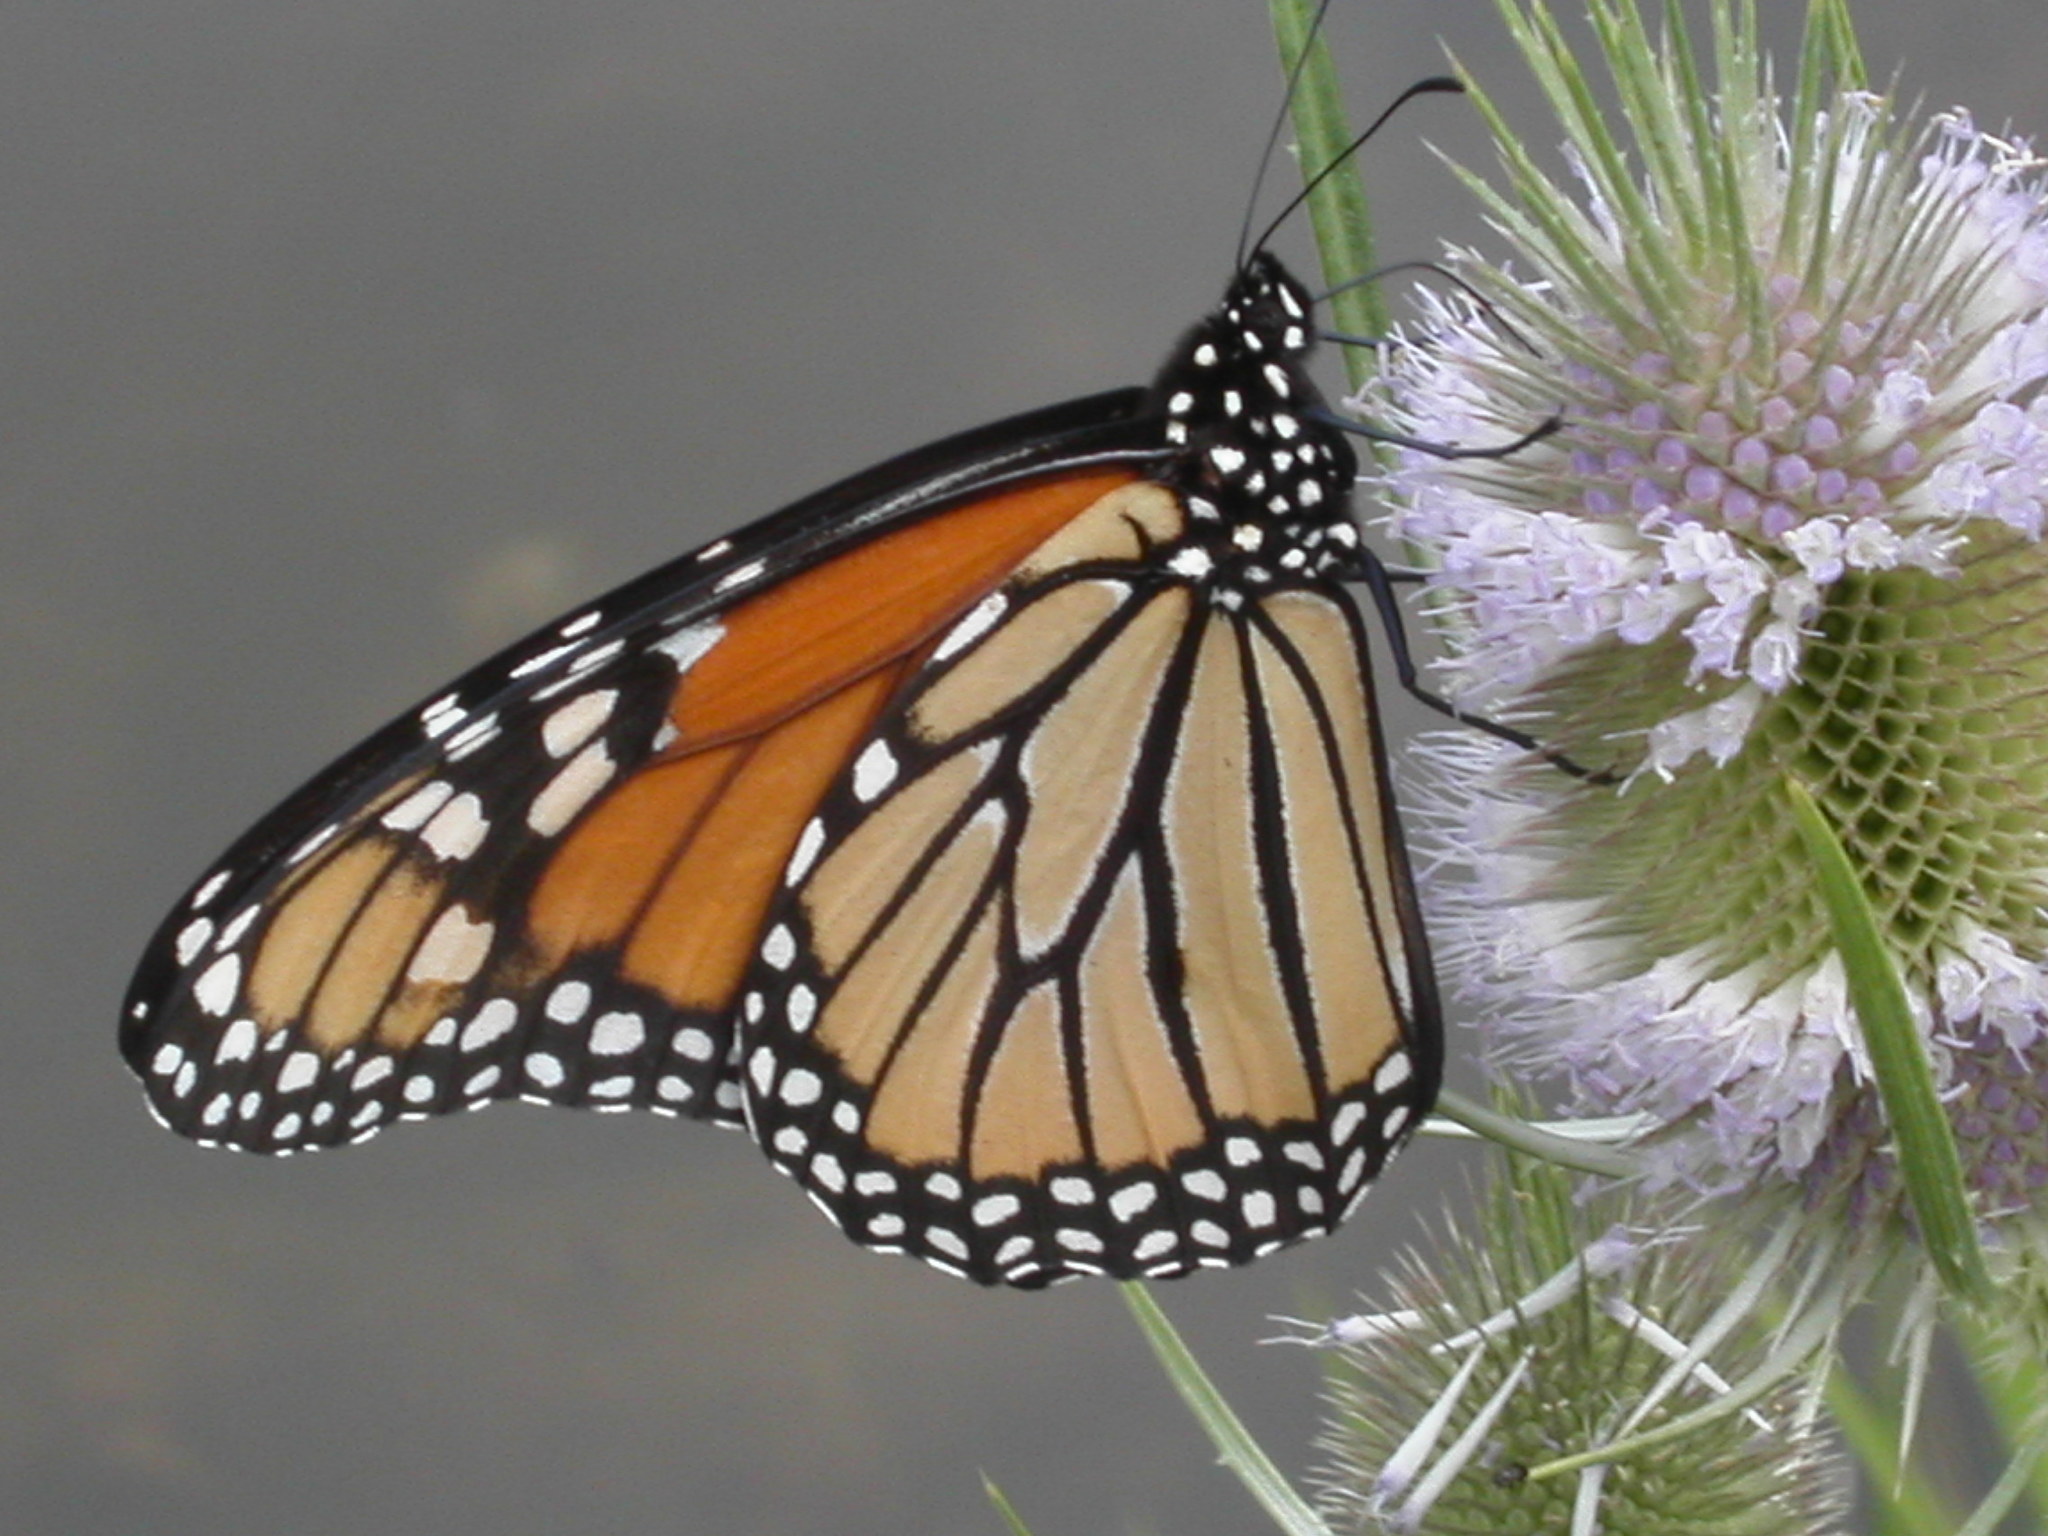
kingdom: Animalia
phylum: Arthropoda
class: Insecta
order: Lepidoptera
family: Nymphalidae
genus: Danaus
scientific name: Danaus plexippus
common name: Monarch
